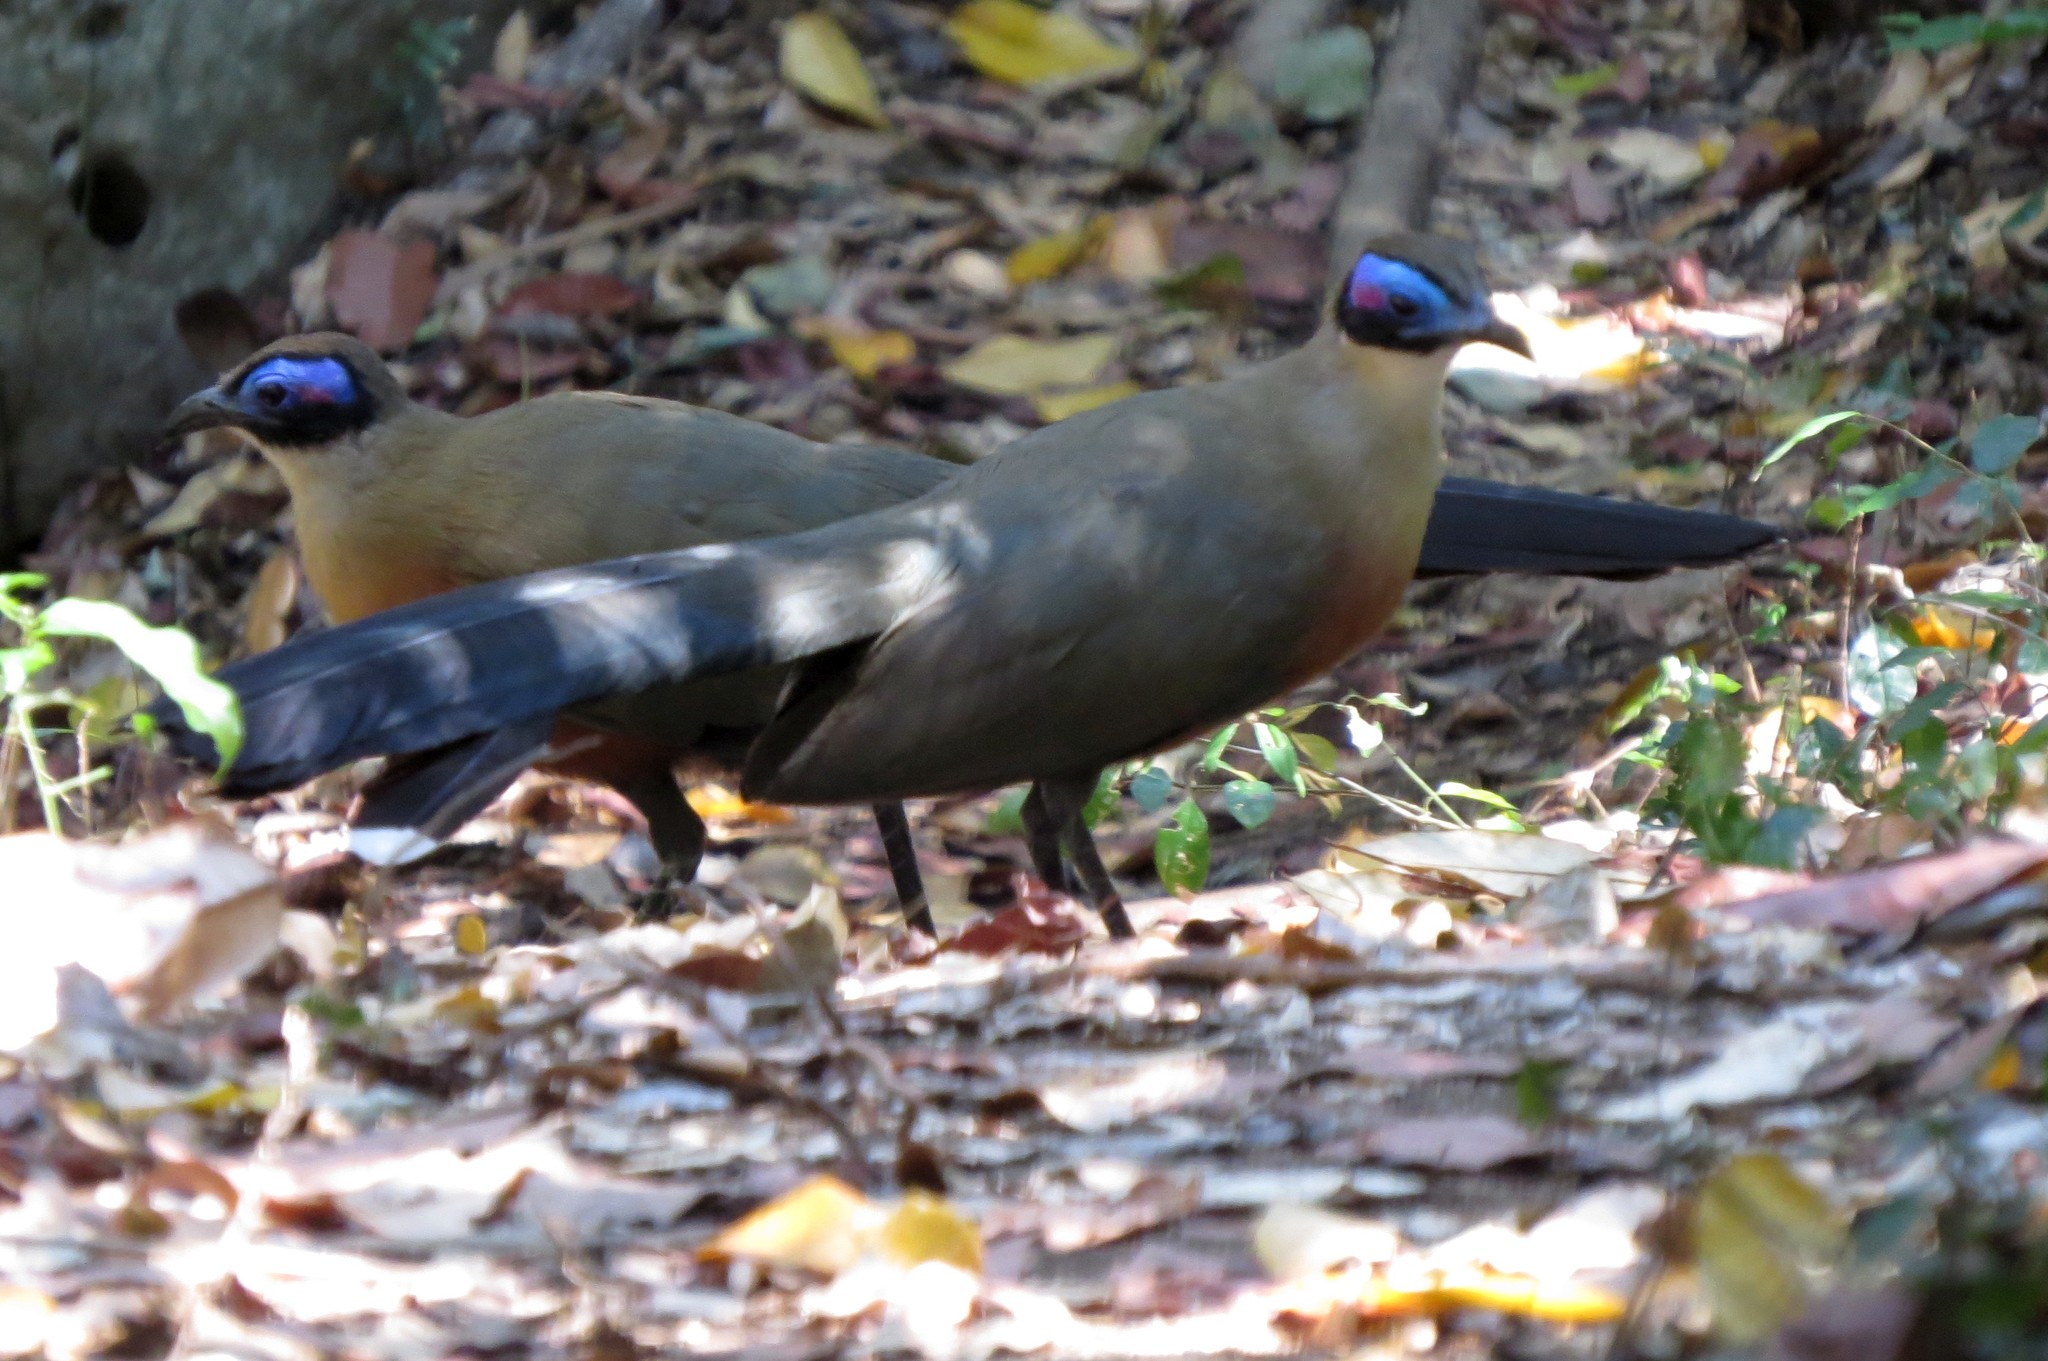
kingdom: Animalia
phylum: Chordata
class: Aves
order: Cuculiformes
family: Cuculidae
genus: Coua
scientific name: Coua gigas
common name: Giant coua
